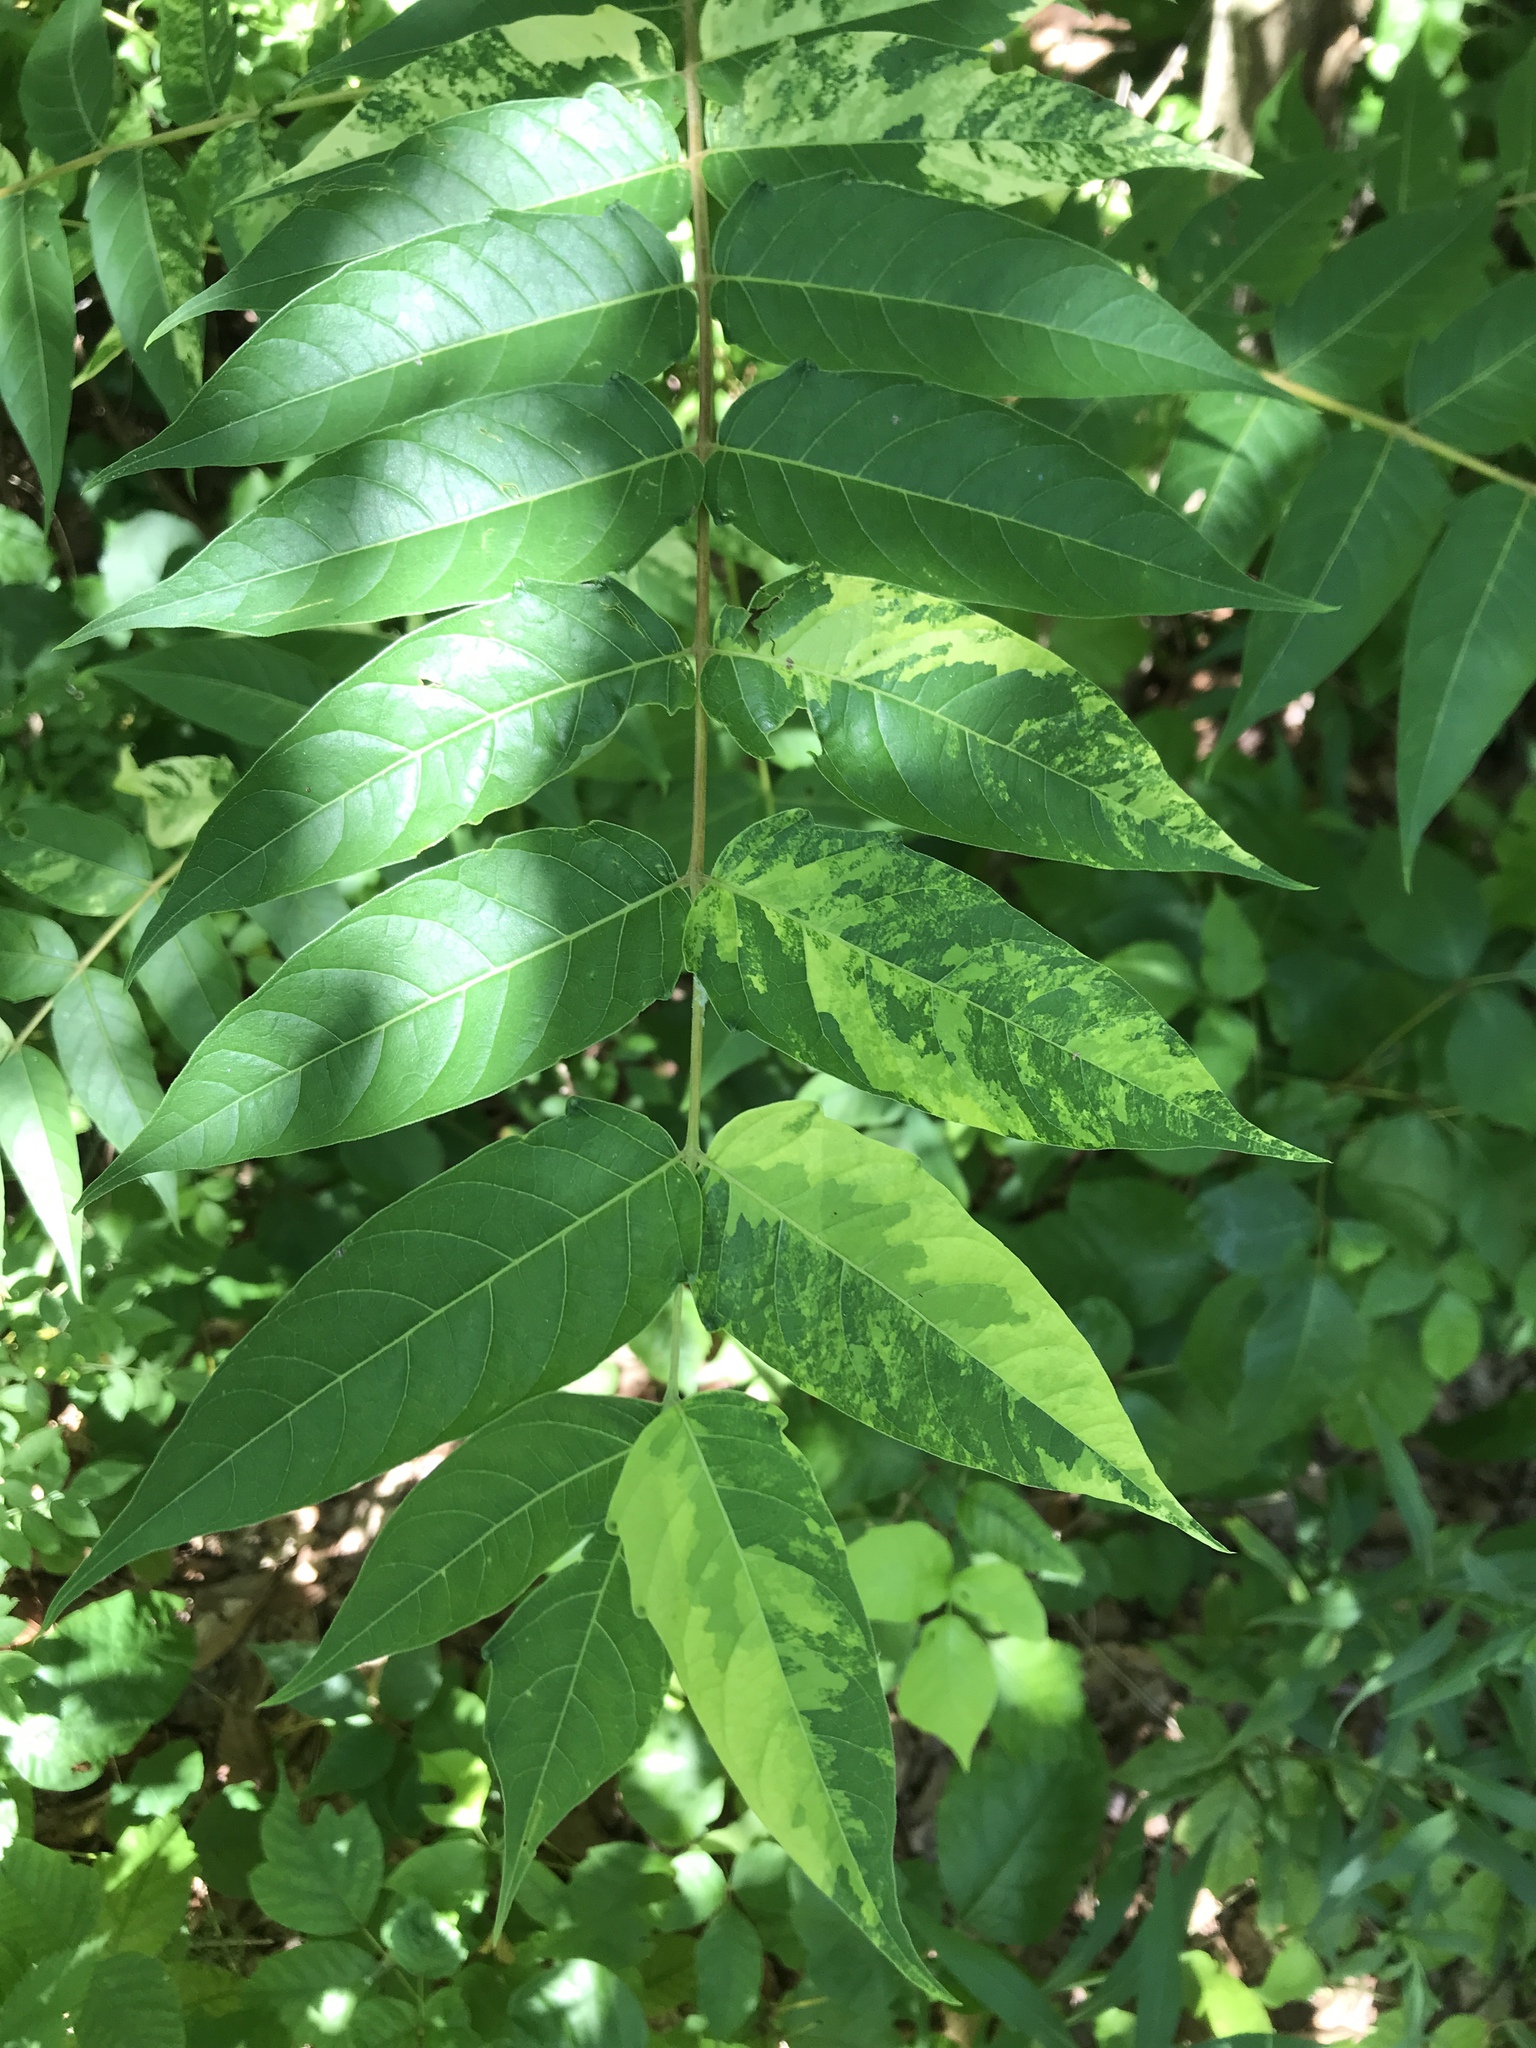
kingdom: Plantae
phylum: Tracheophyta
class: Magnoliopsida
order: Sapindales
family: Simaroubaceae
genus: Ailanthus
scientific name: Ailanthus altissima
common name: Tree-of-heaven
